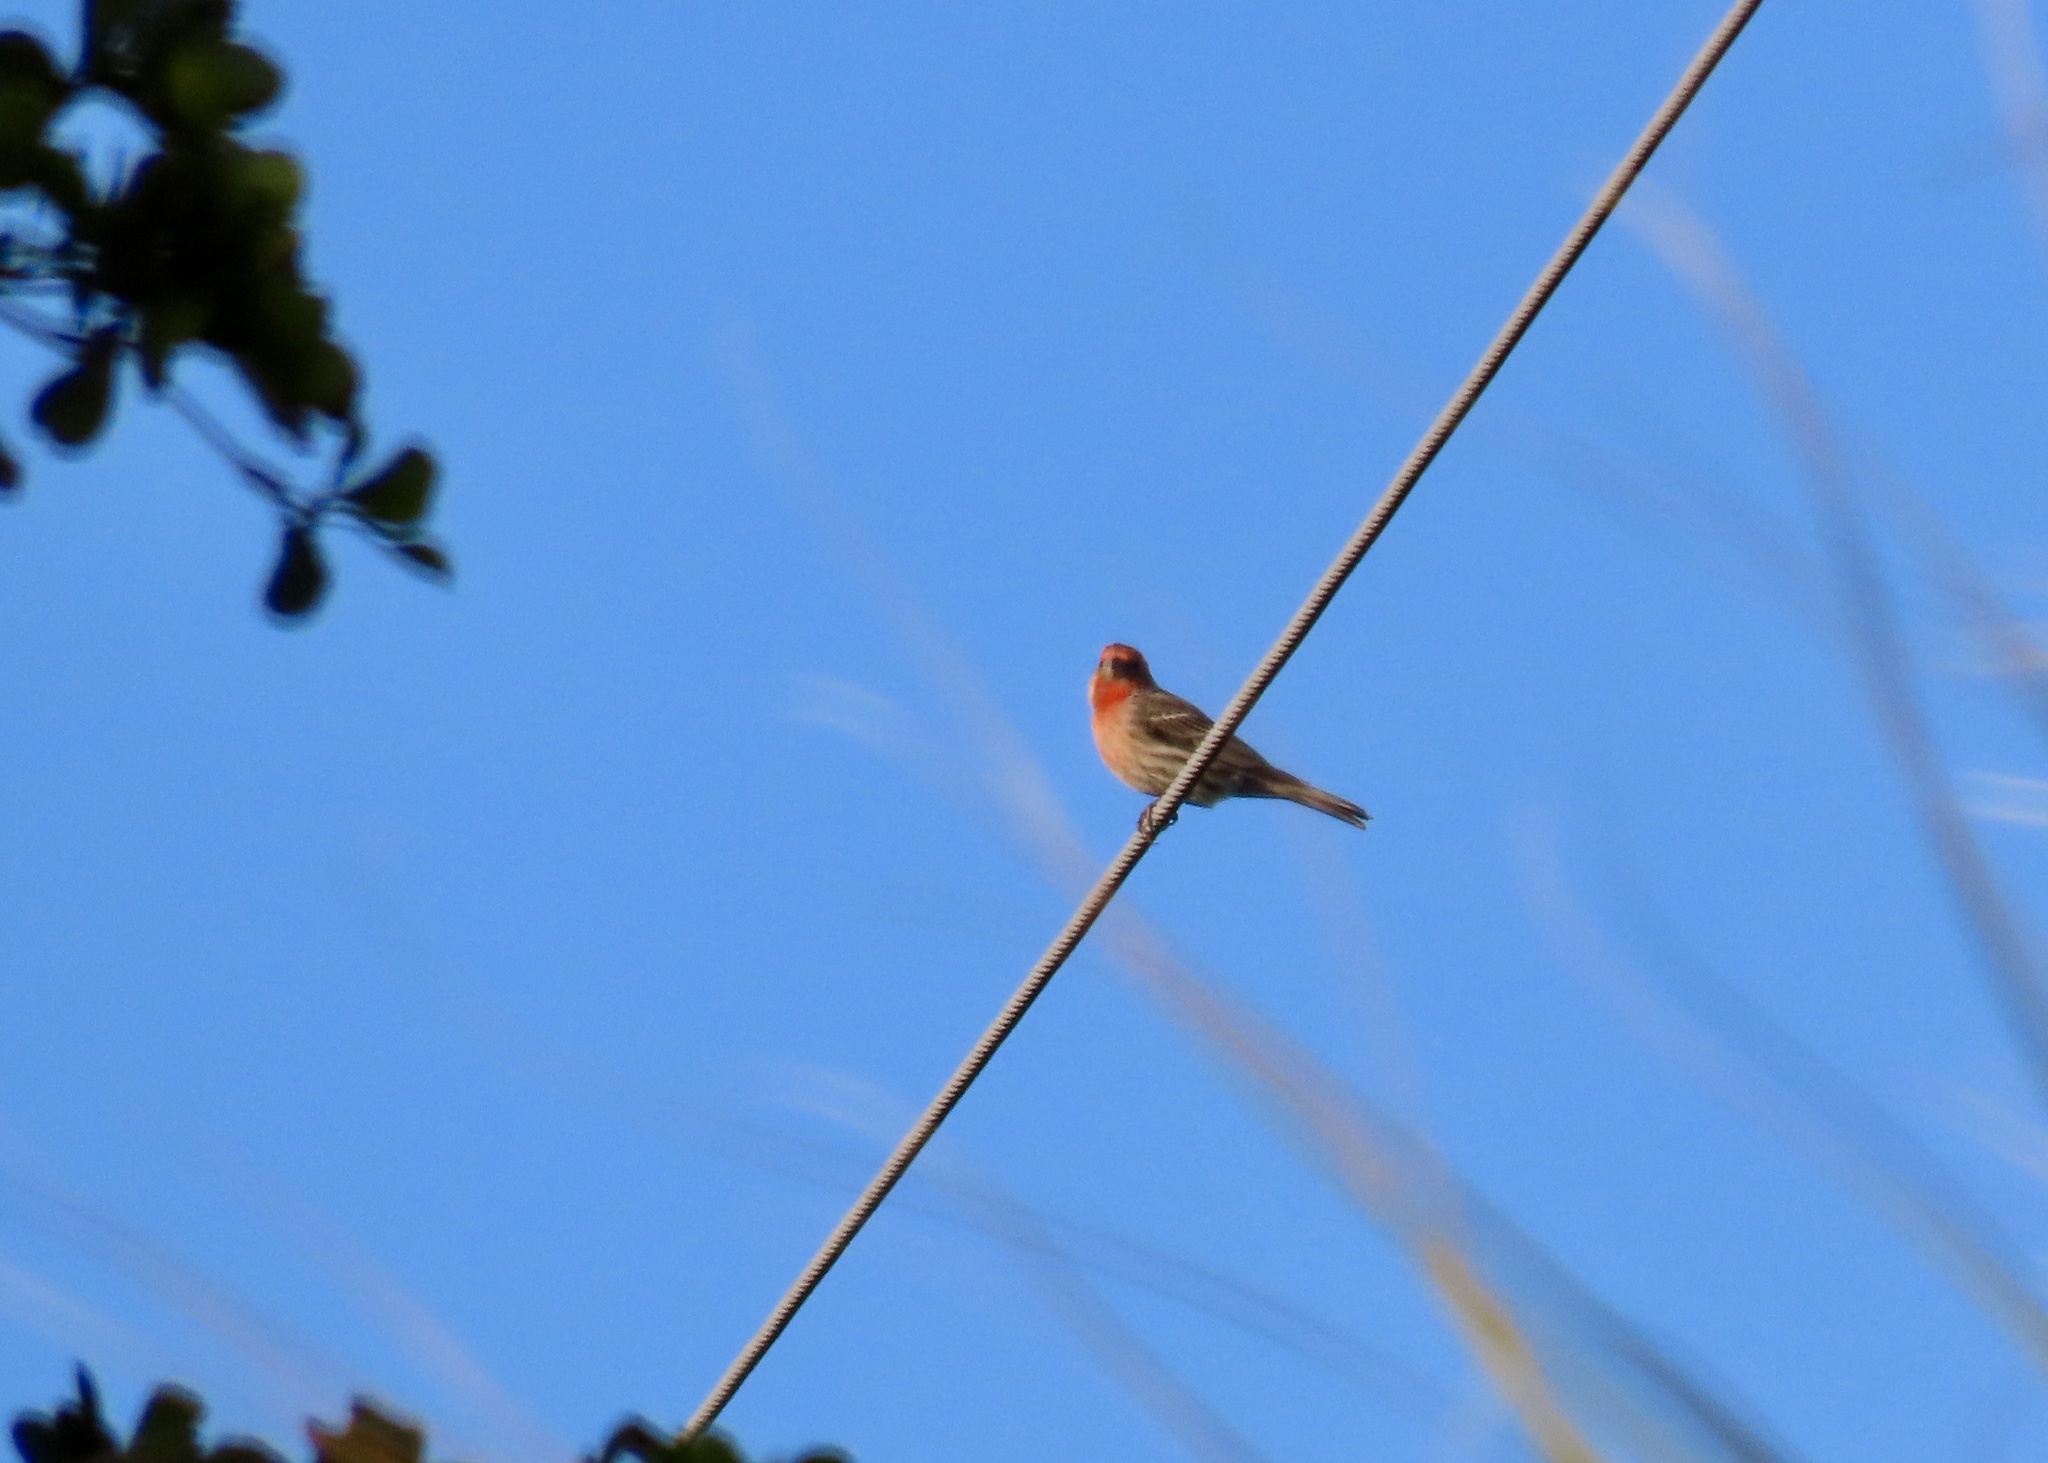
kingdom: Animalia
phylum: Chordata
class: Aves
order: Passeriformes
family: Fringillidae
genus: Haemorhous
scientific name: Haemorhous mexicanus
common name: House finch
